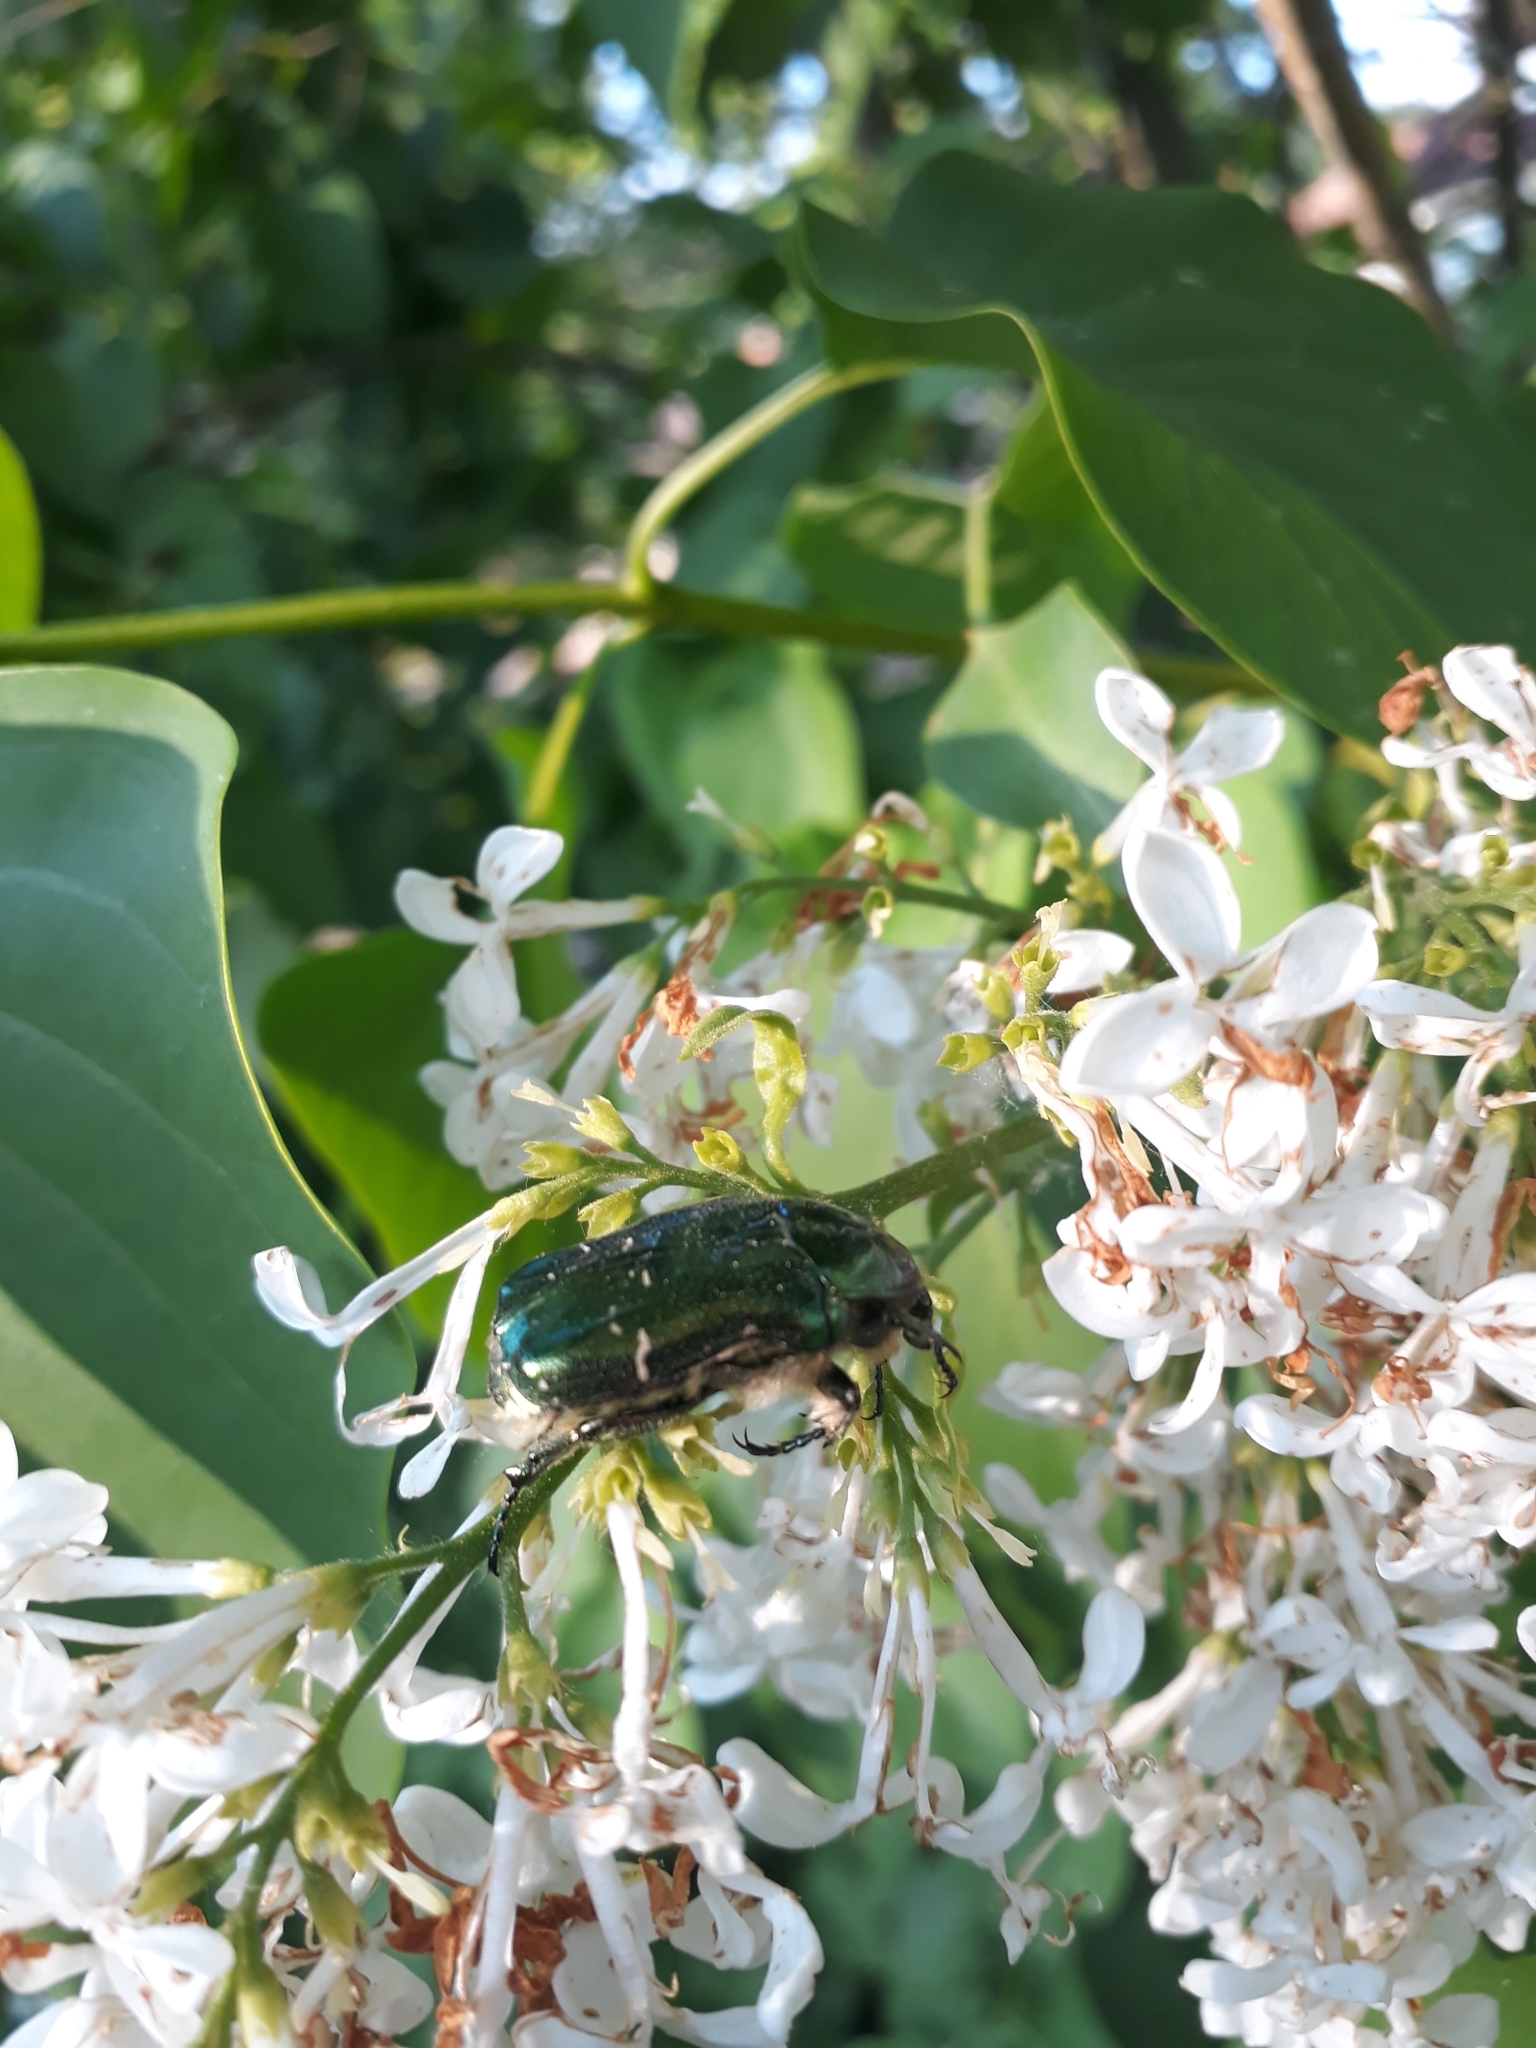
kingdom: Animalia
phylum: Arthropoda
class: Insecta
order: Coleoptera
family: Scarabaeidae
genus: Cetonia
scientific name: Cetonia aurata
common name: Rose chafer
